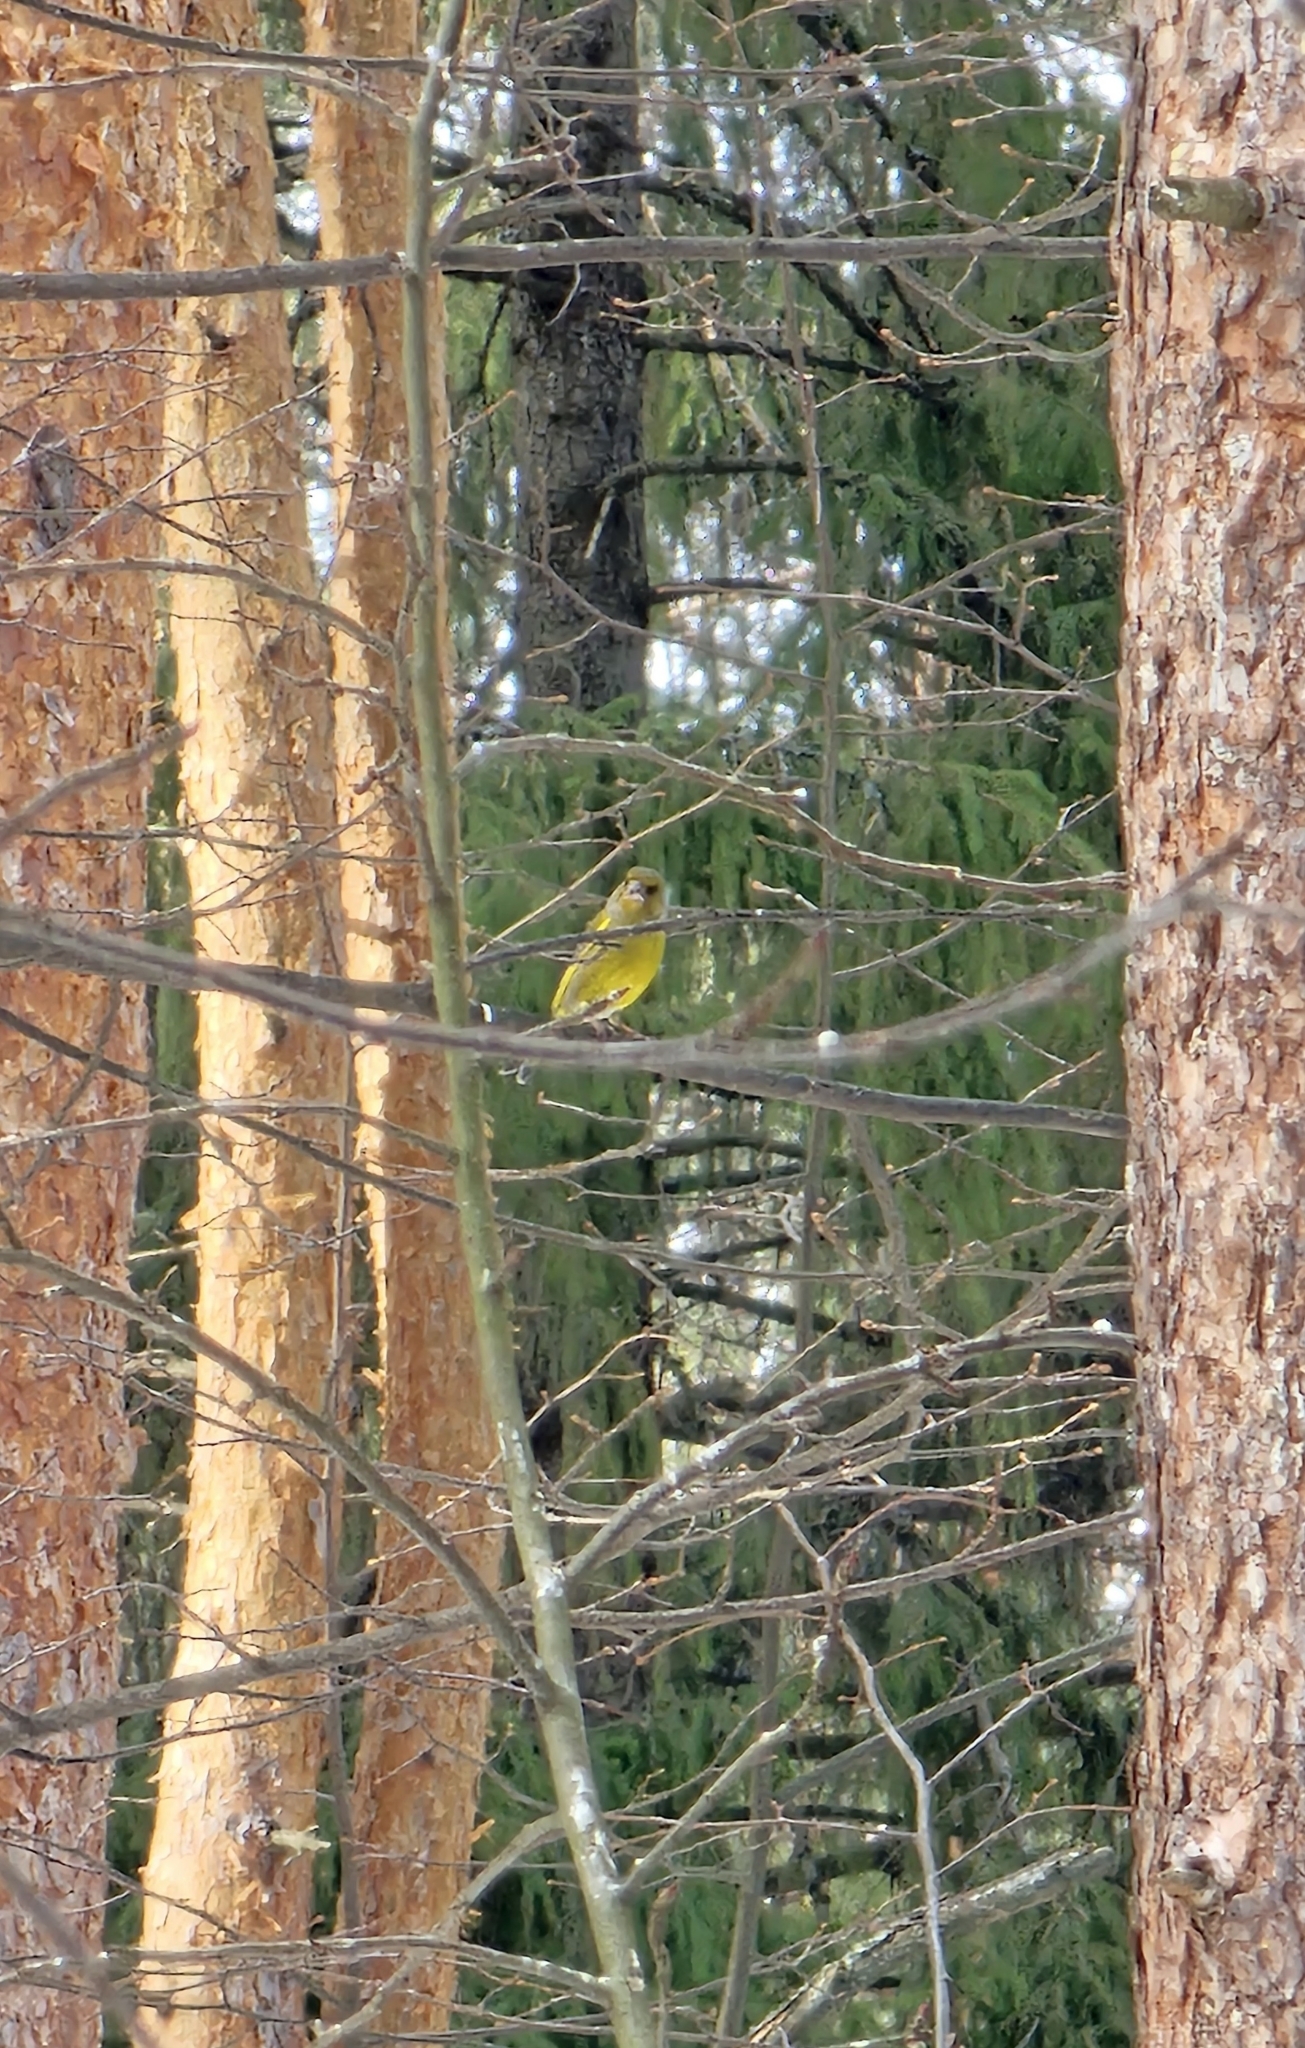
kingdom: Plantae
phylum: Tracheophyta
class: Liliopsida
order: Poales
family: Poaceae
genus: Chloris
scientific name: Chloris chloris
